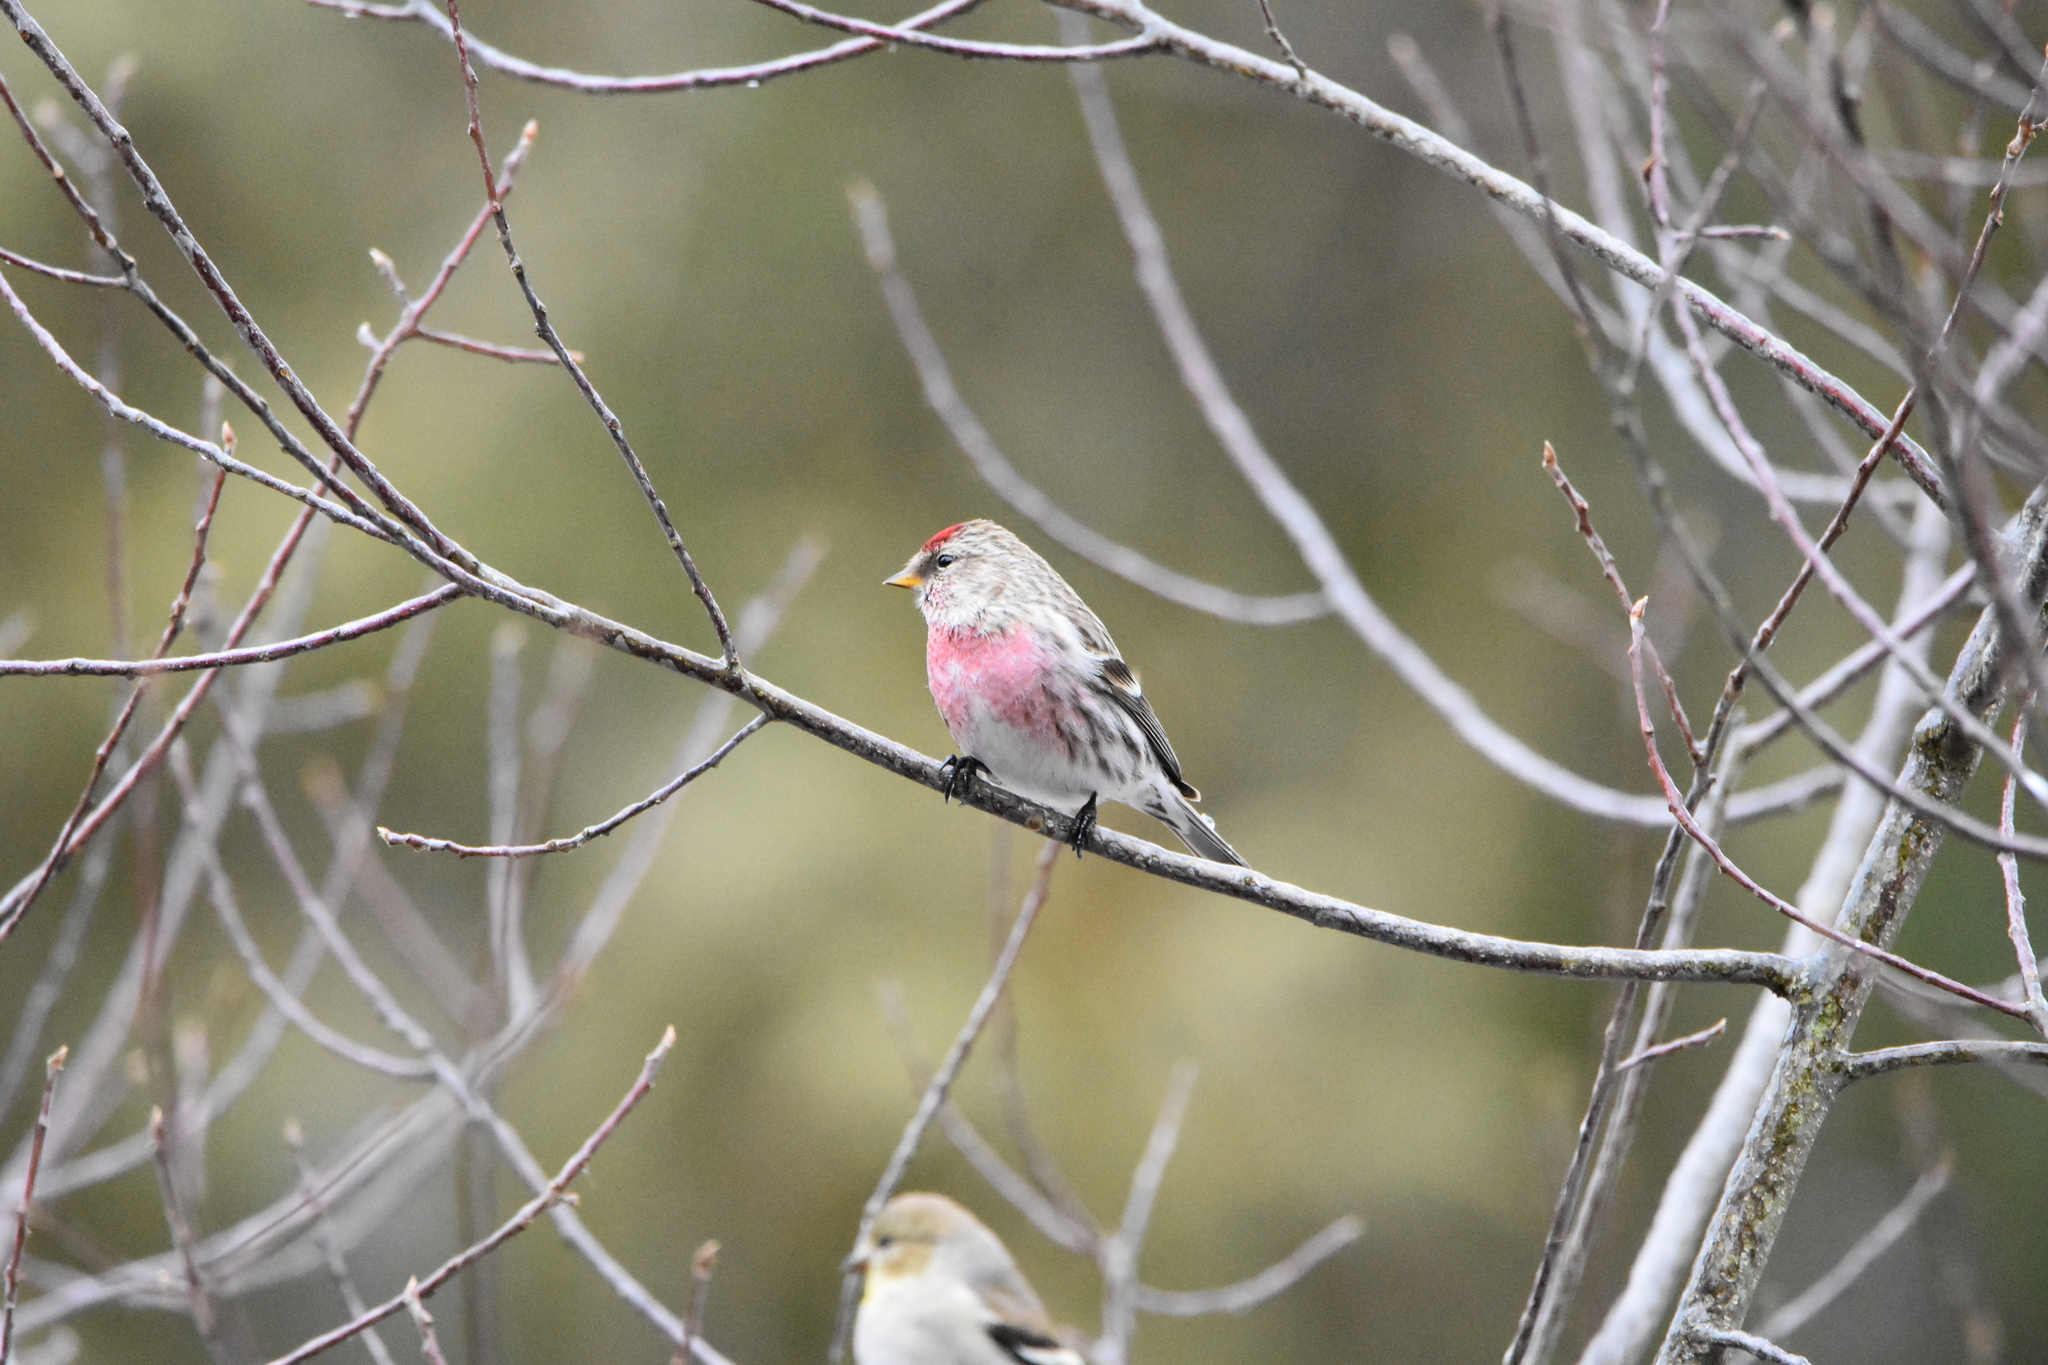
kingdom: Animalia
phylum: Chordata
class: Aves
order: Passeriformes
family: Fringillidae
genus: Acanthis
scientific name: Acanthis flammea
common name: Common redpoll
